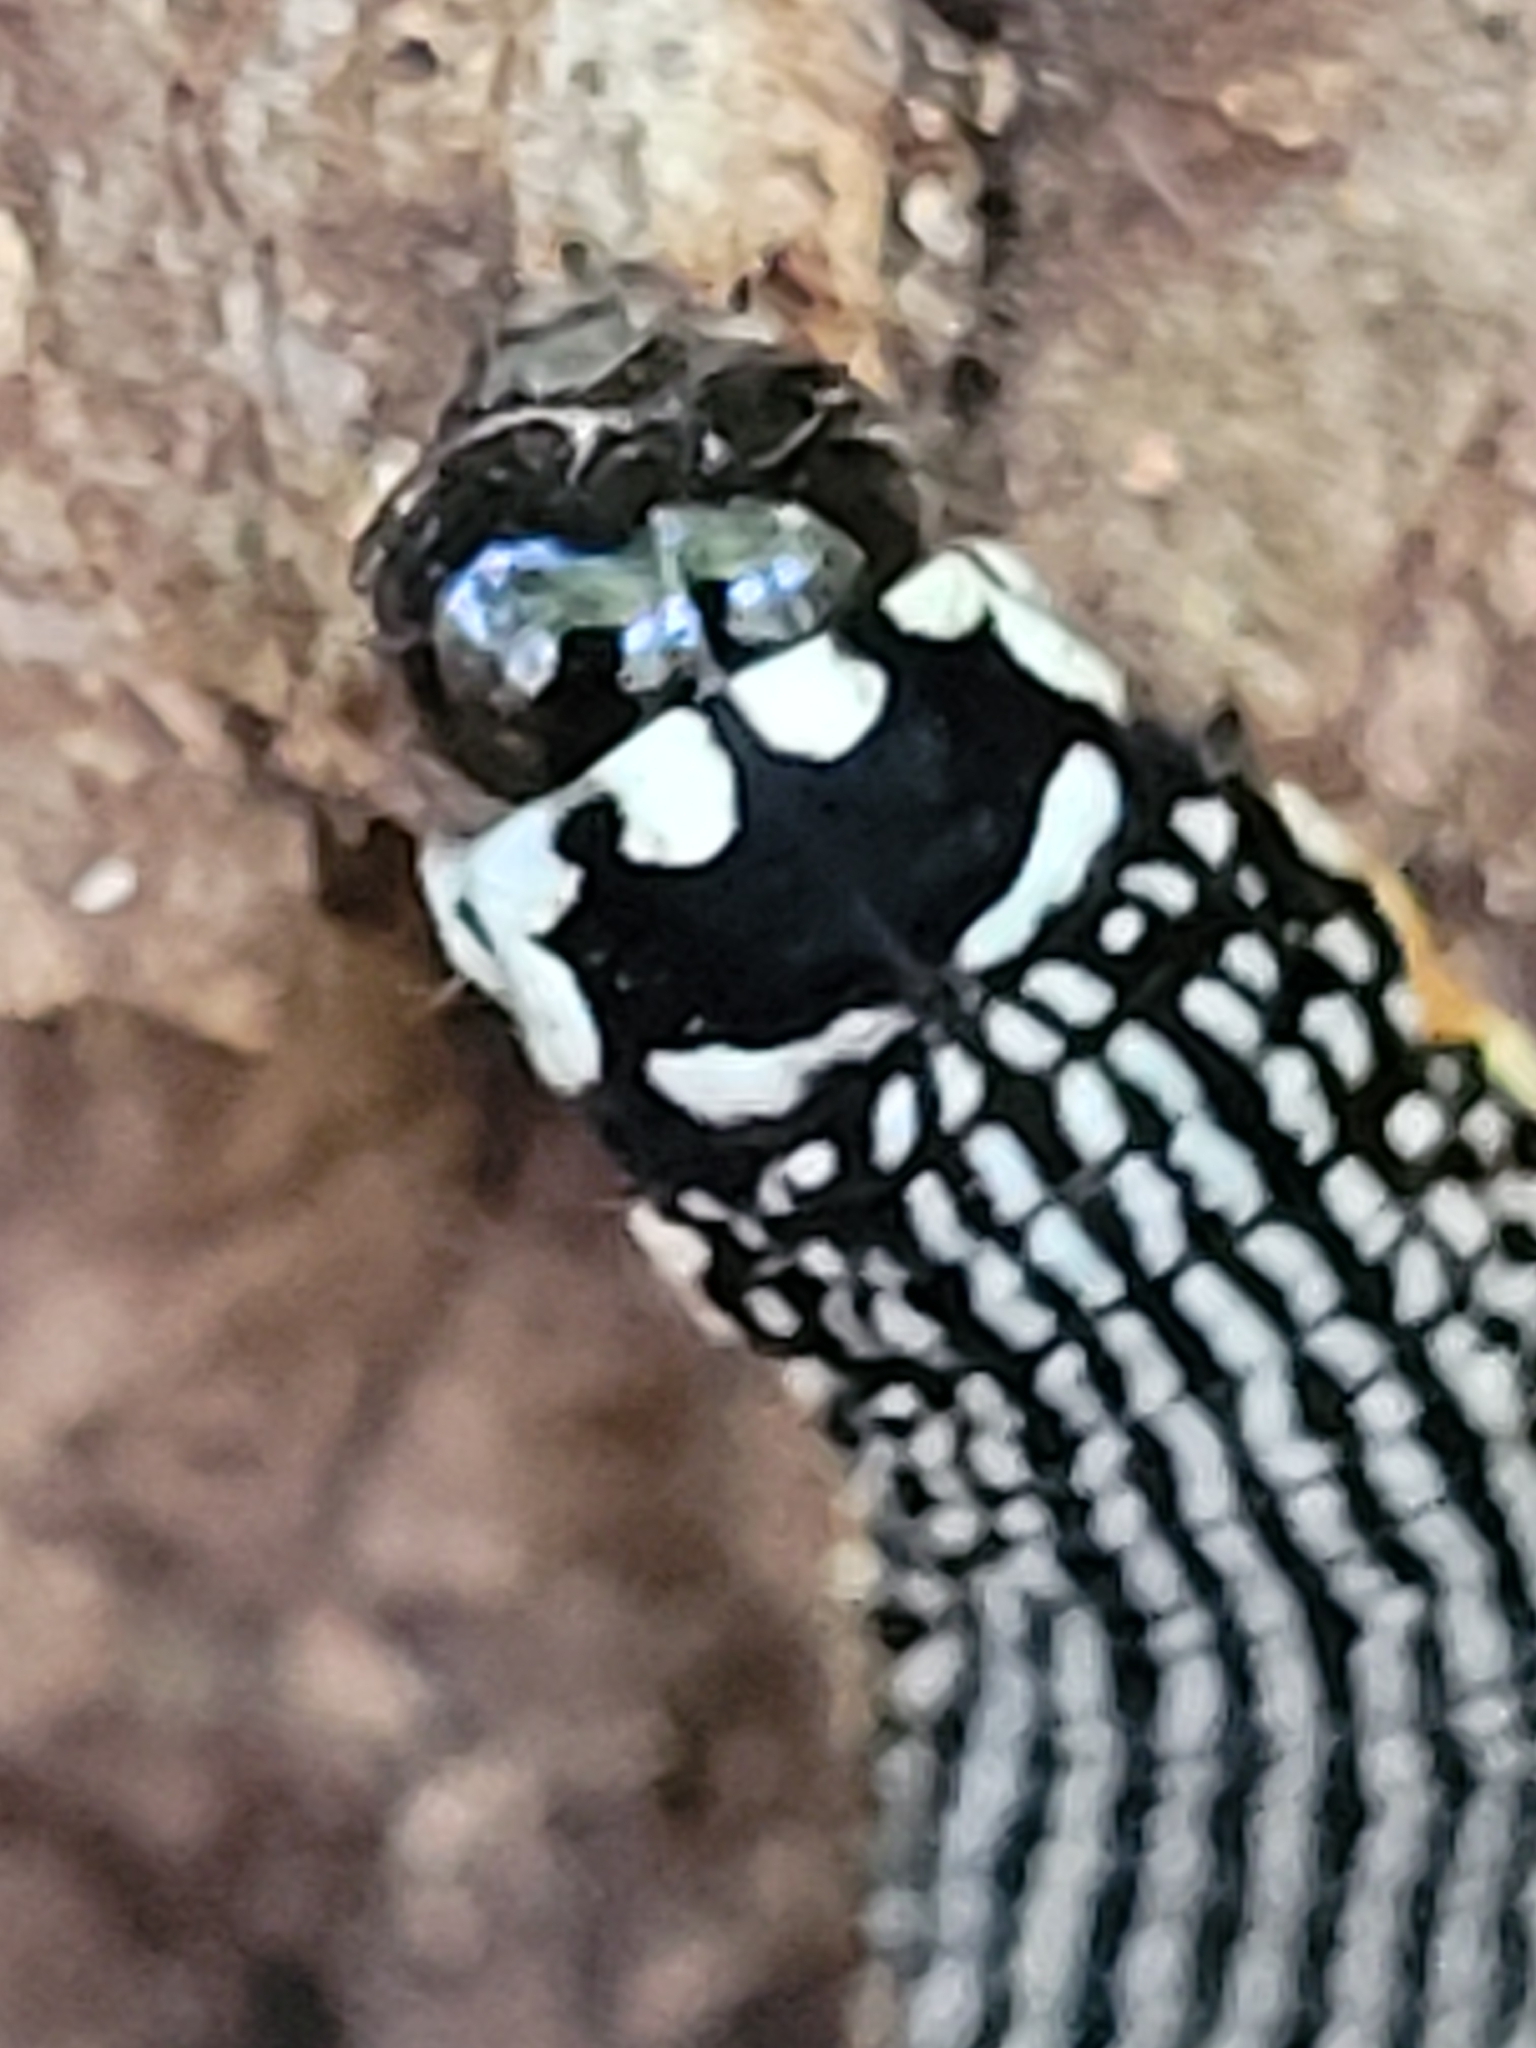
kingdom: Animalia
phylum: Arthropoda
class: Insecta
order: Lepidoptera
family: Noctuidae
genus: Phosphila
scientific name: Phosphila turbulenta
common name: Turbulent phosphila moth
